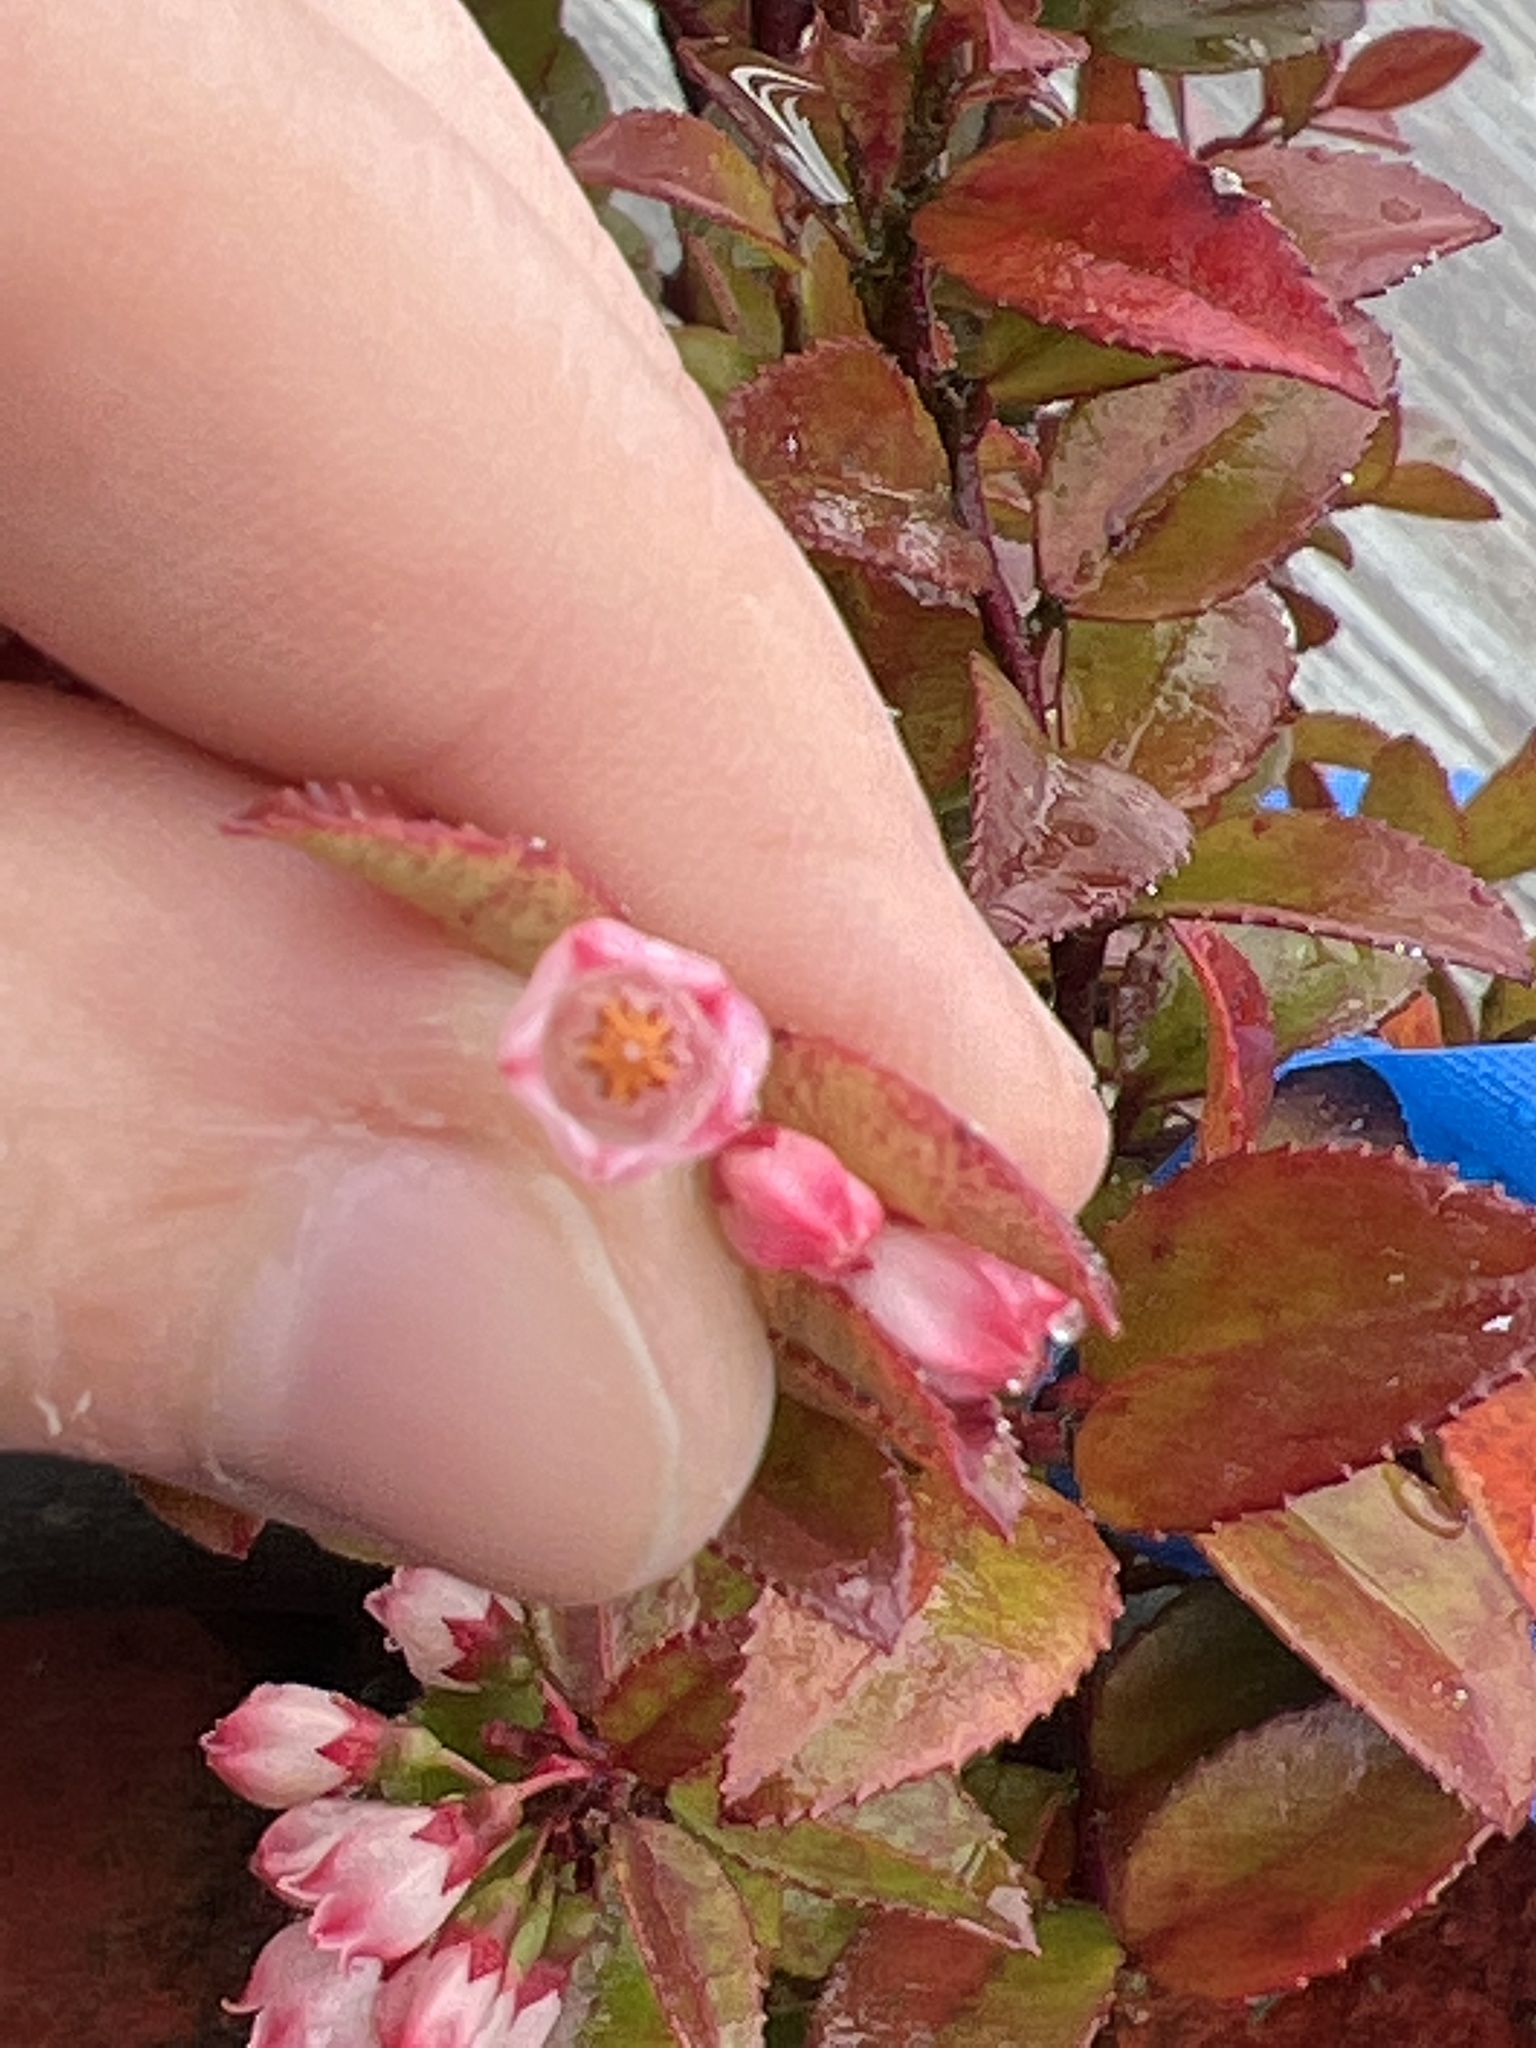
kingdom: Plantae
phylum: Tracheophyta
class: Magnoliopsida
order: Ericales
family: Ericaceae
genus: Vaccinium
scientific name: Vaccinium ovatum
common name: California-huckleberry
